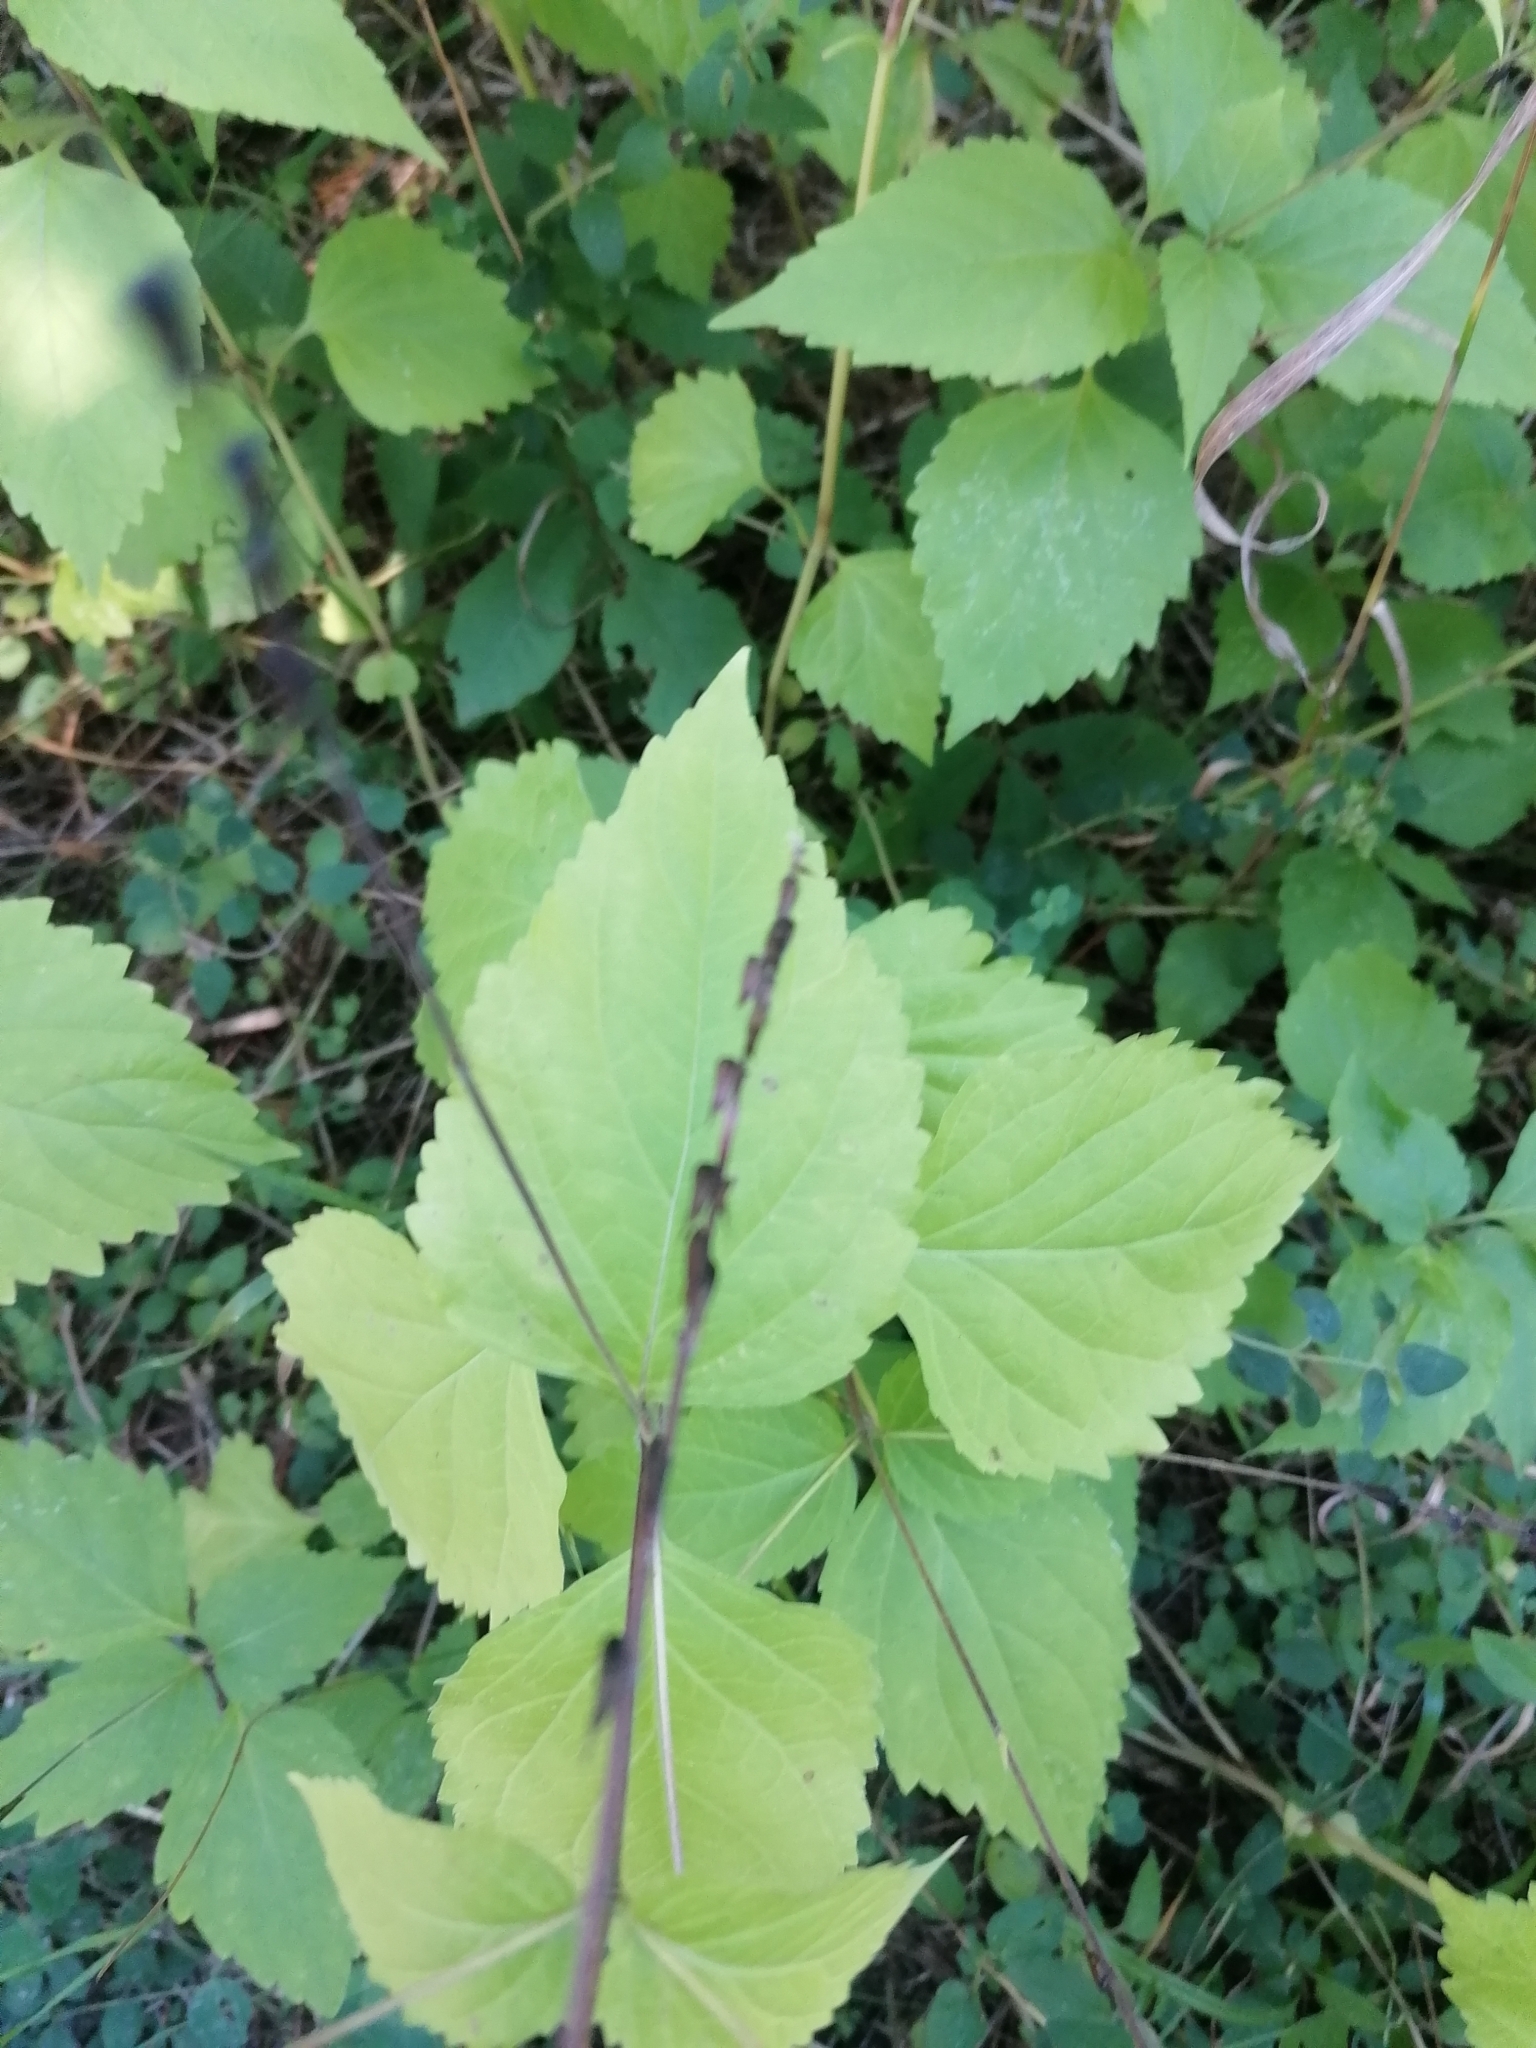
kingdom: Plantae
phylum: Tracheophyta
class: Magnoliopsida
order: Lamiales
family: Phrymaceae
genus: Phryma
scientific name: Phryma leptostachya
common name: American lopseed
